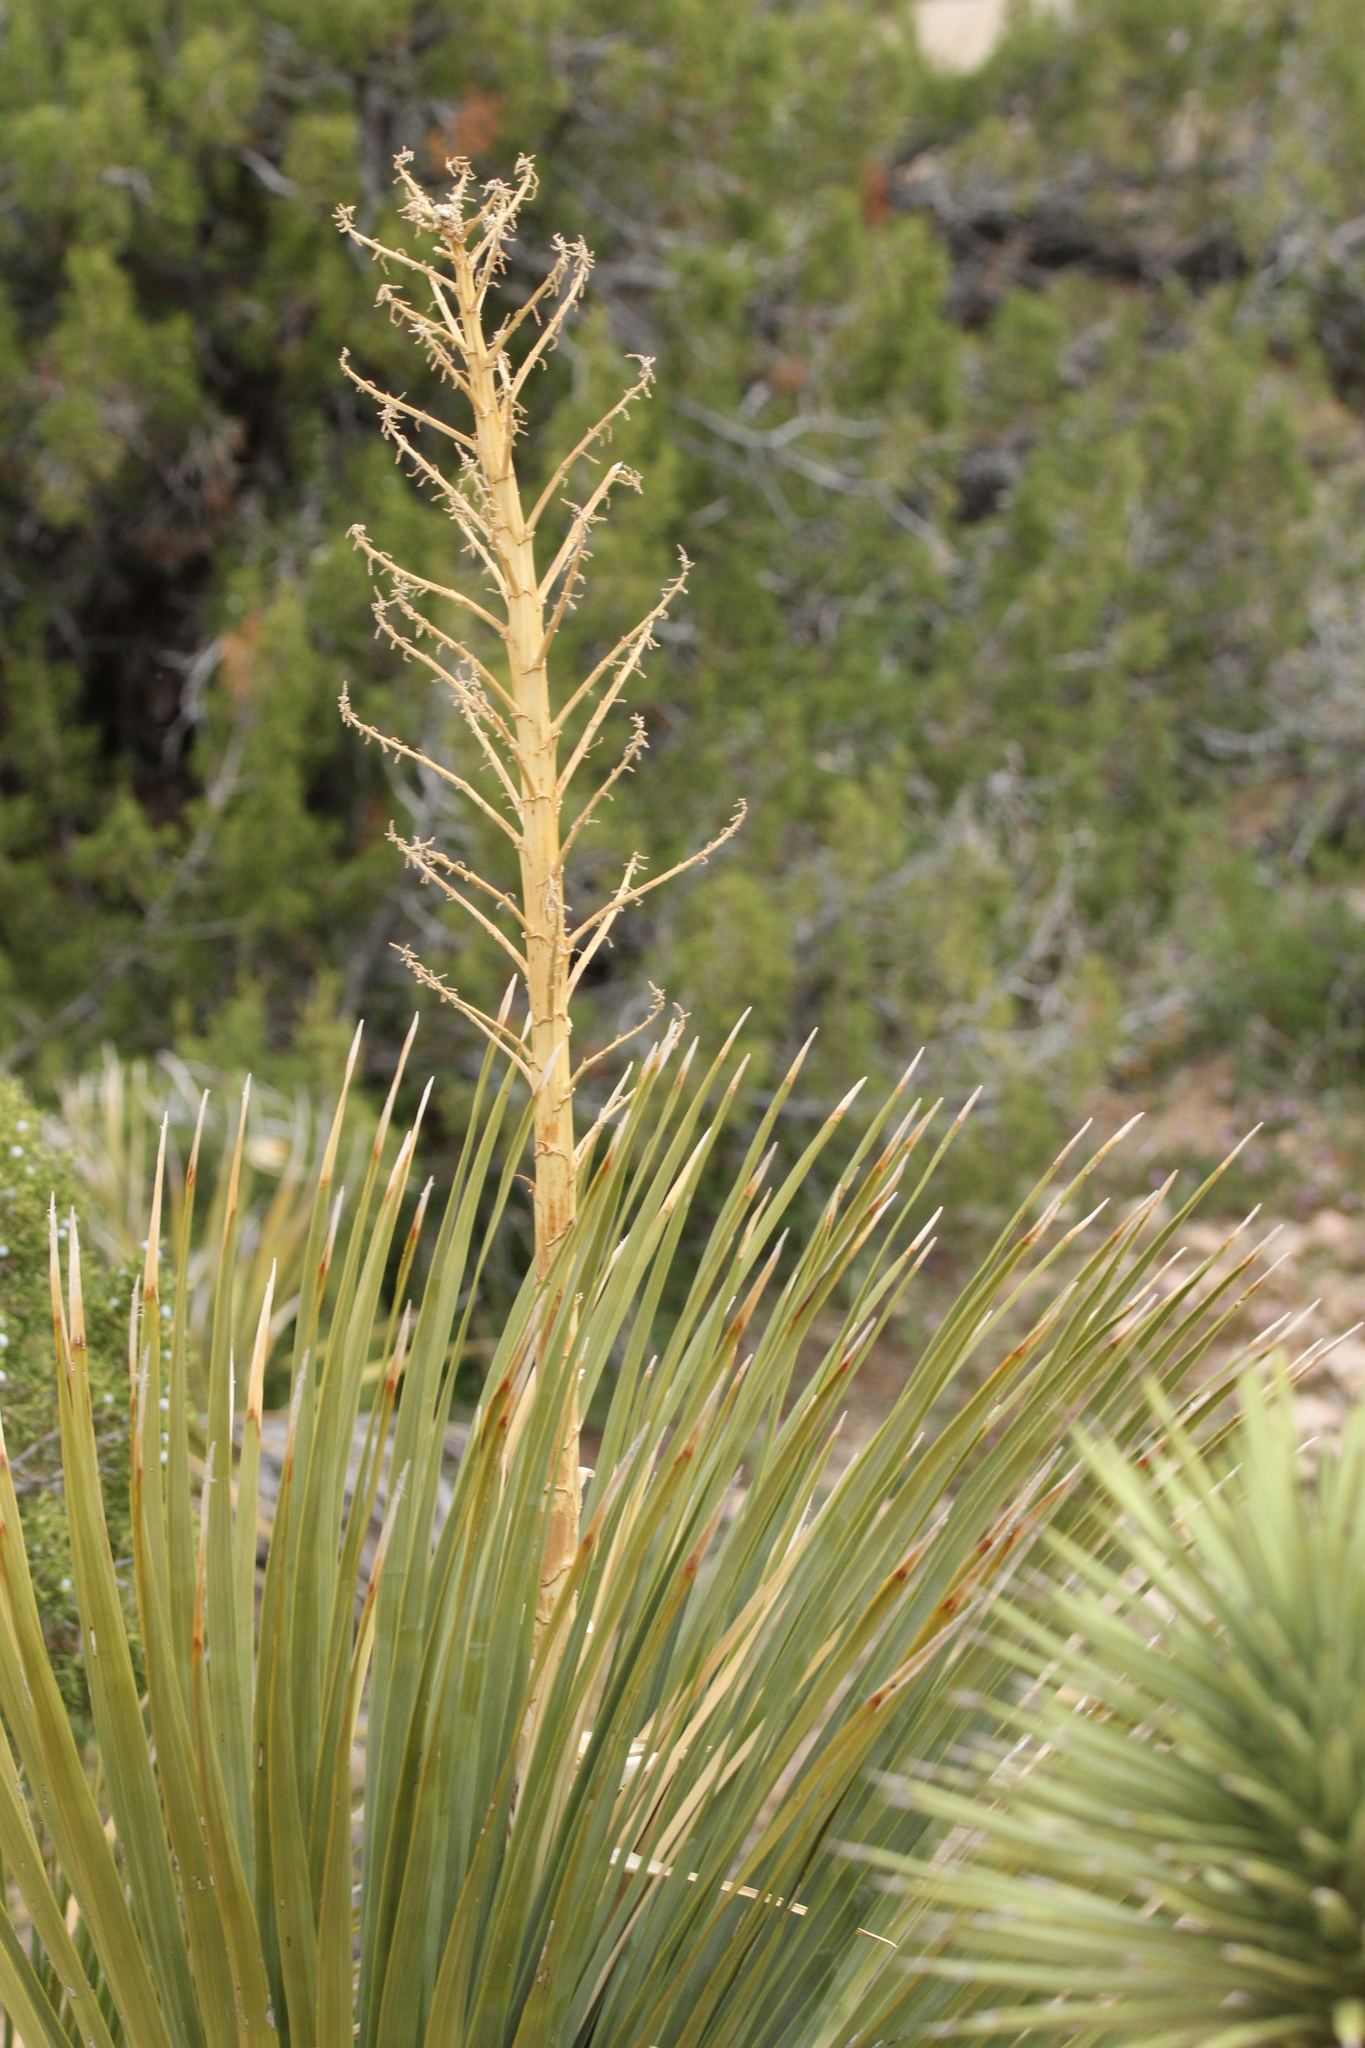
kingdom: Plantae
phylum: Tracheophyta
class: Liliopsida
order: Asparagales
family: Asparagaceae
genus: Nolina
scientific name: Nolina parryi
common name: Parry nolina
